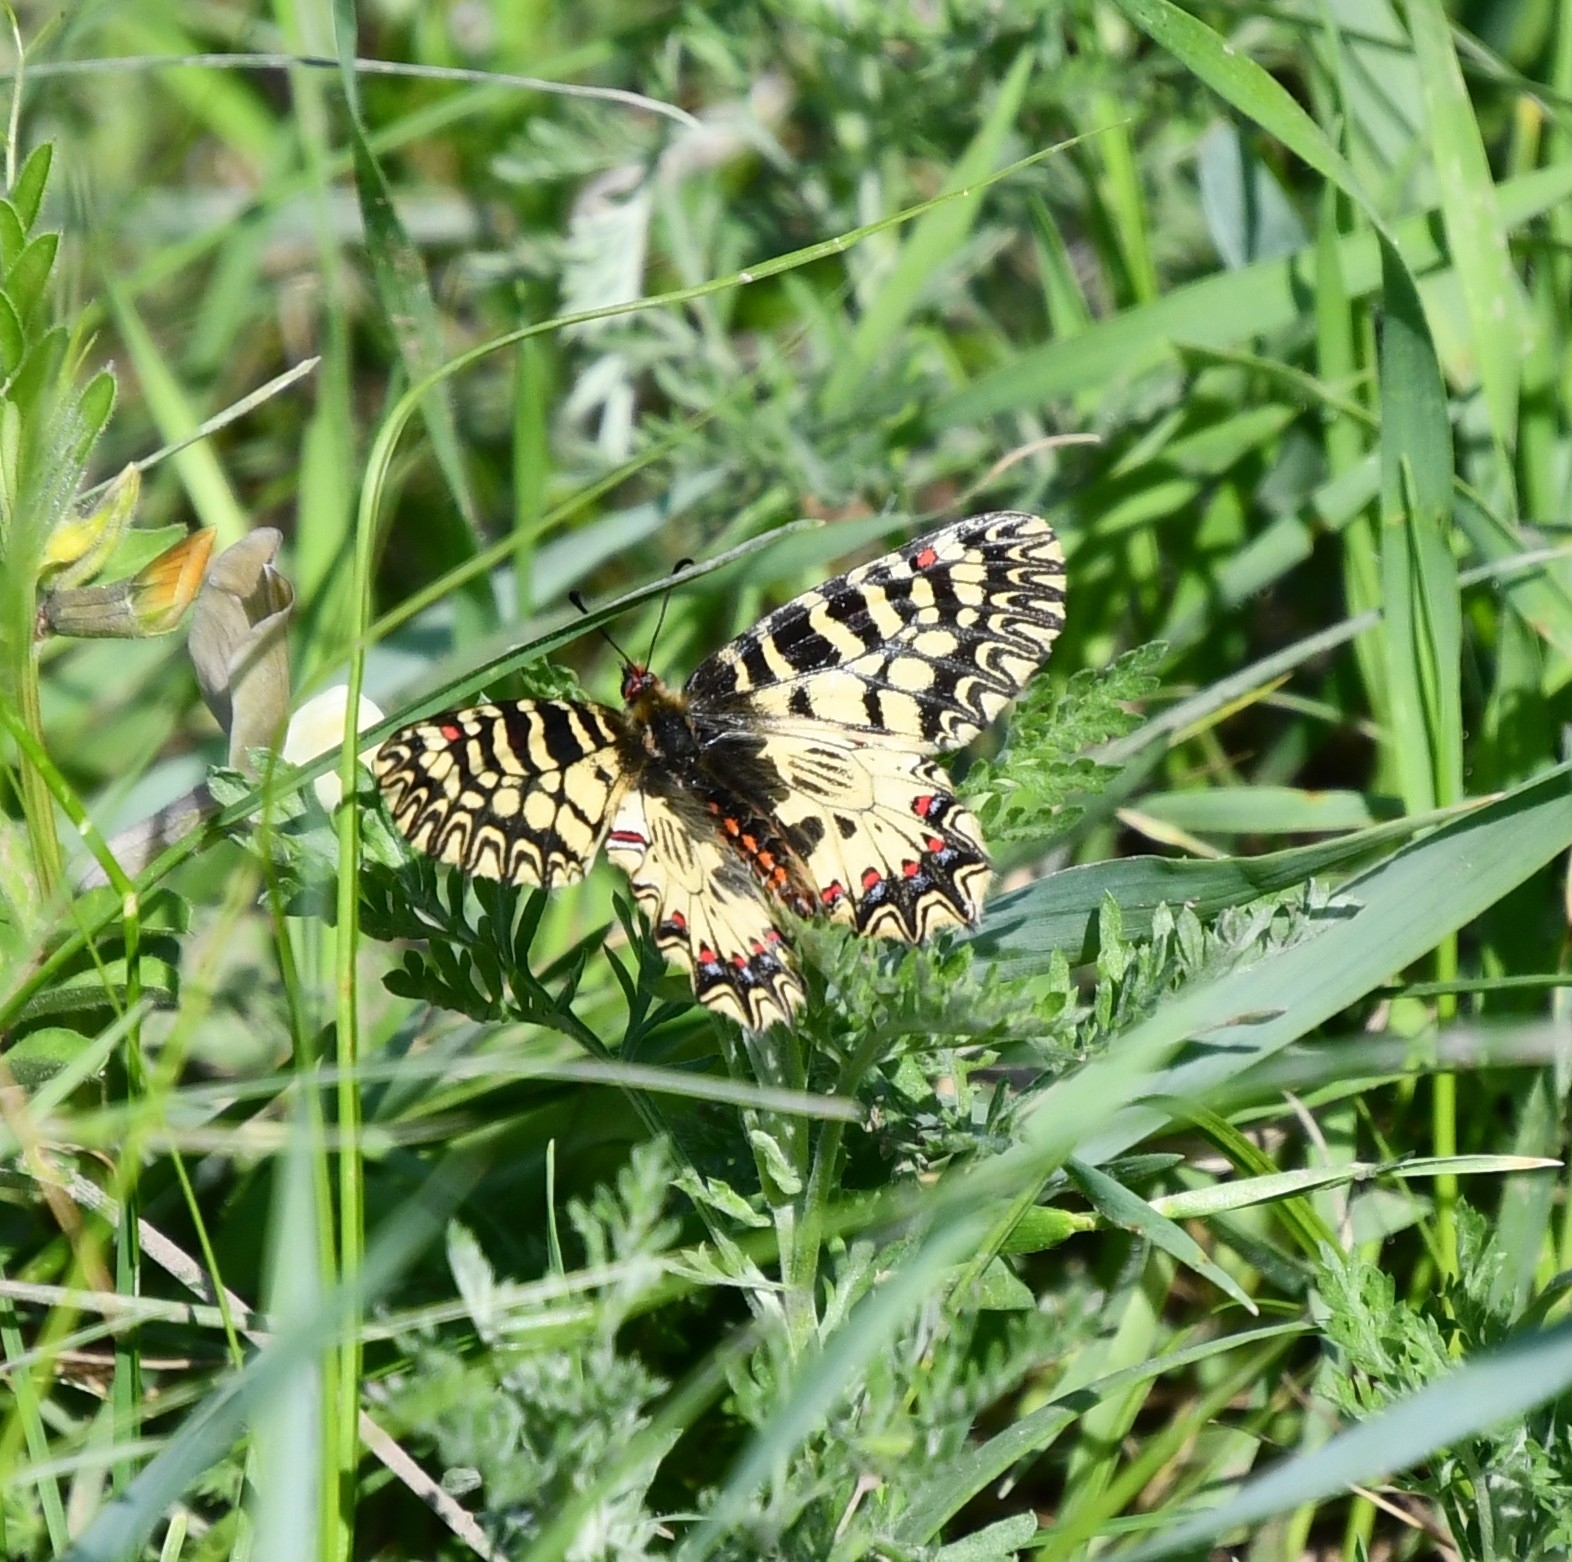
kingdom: Animalia
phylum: Arthropoda
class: Insecta
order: Lepidoptera
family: Papilionidae
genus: Zerynthia
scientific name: Zerynthia polyxena
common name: Southern festoon
